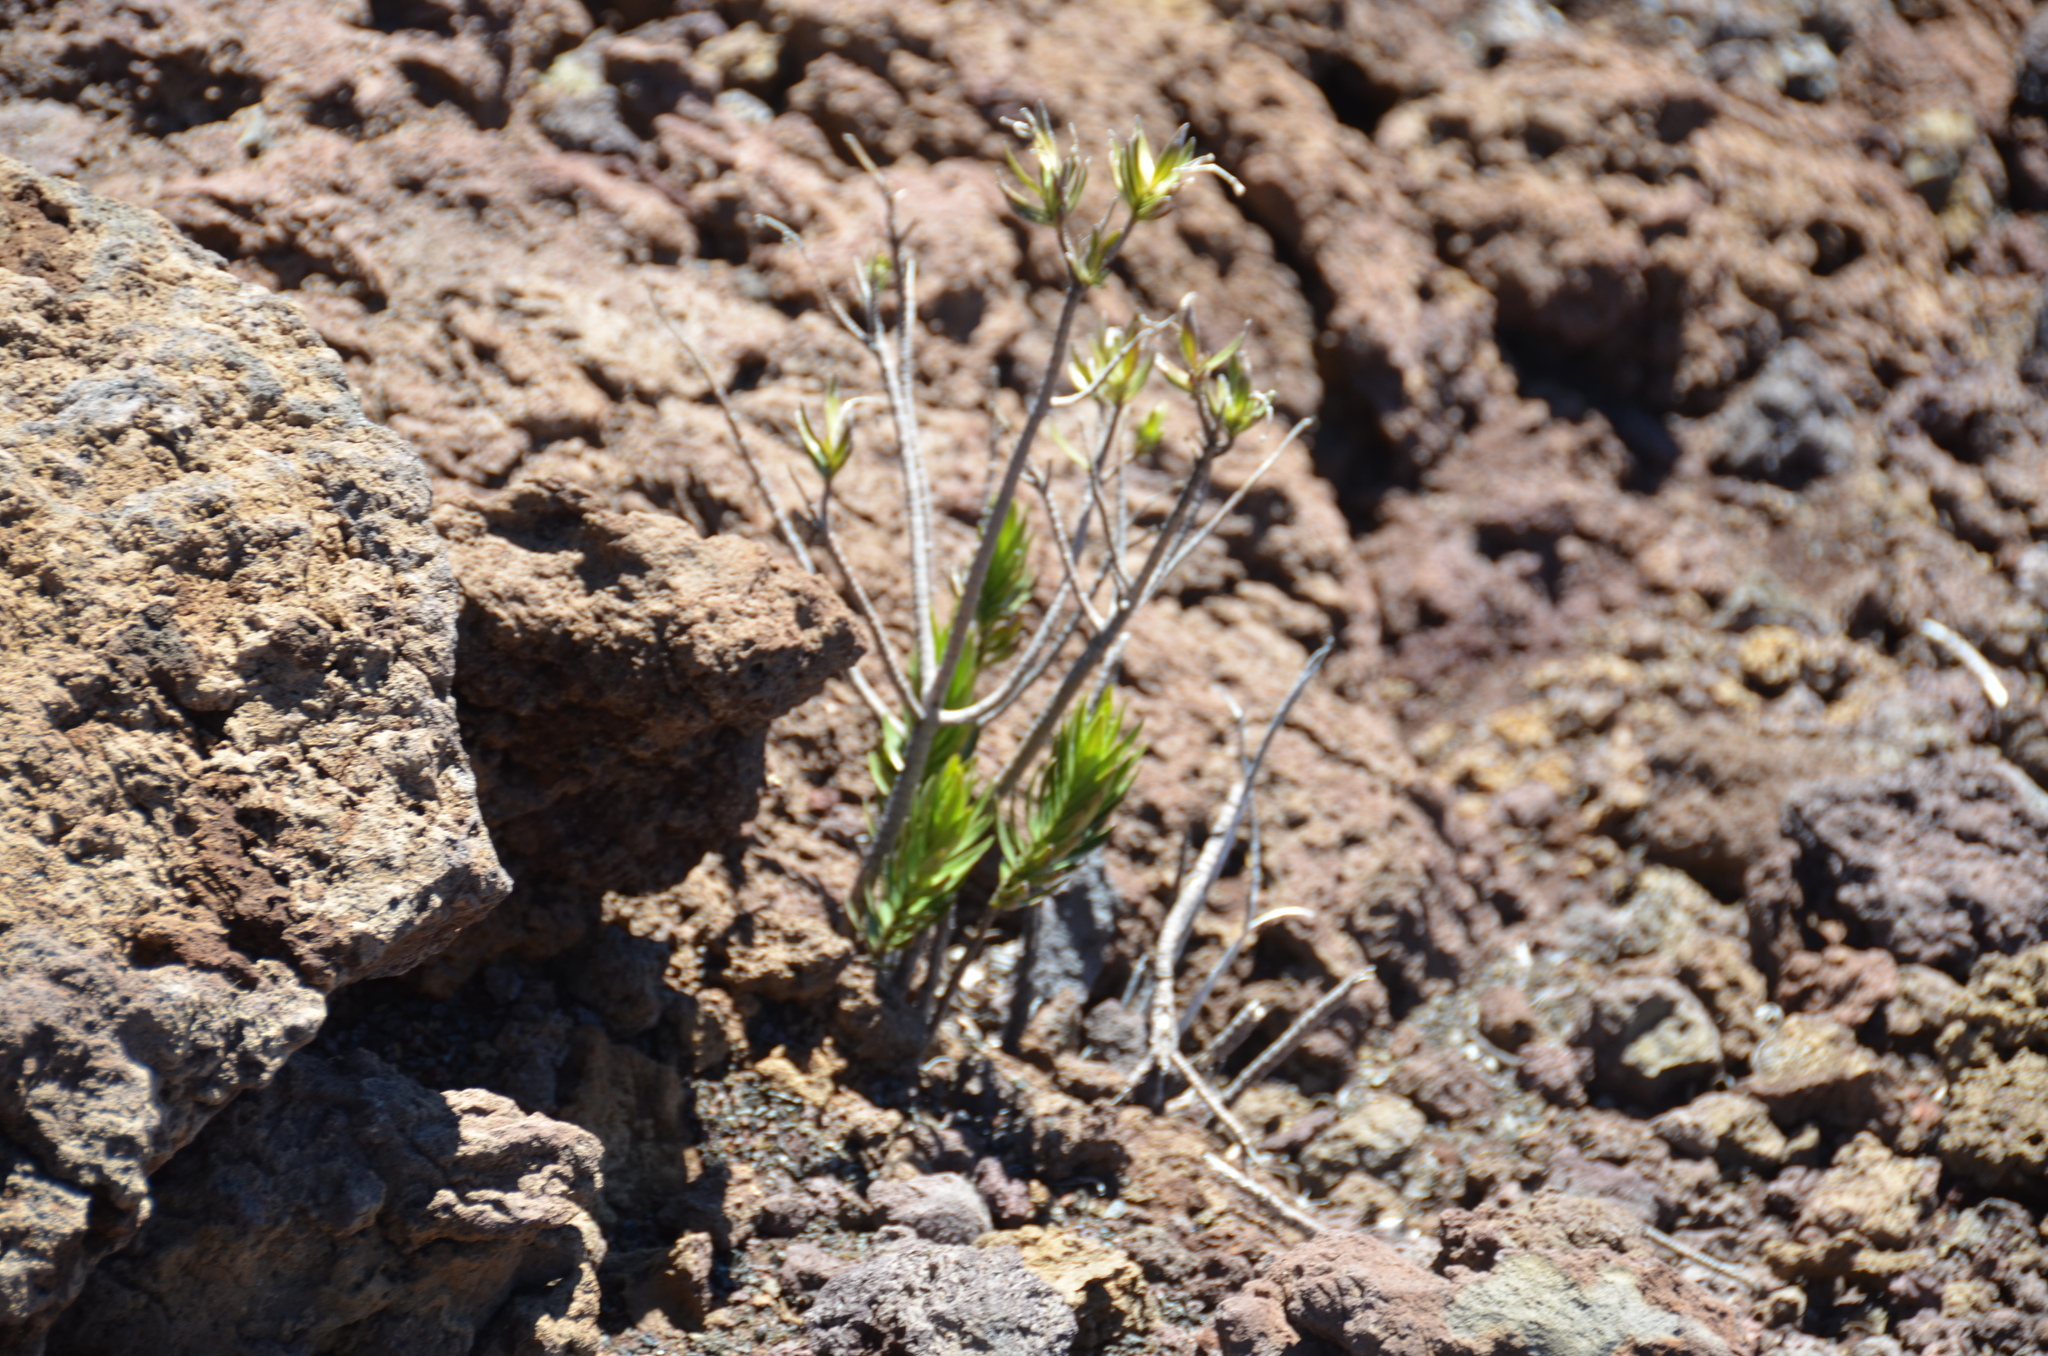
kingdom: Plantae
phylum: Tracheophyta
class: Magnoliopsida
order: Asterales
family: Asteraceae
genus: Dubautia
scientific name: Dubautia menziesii
